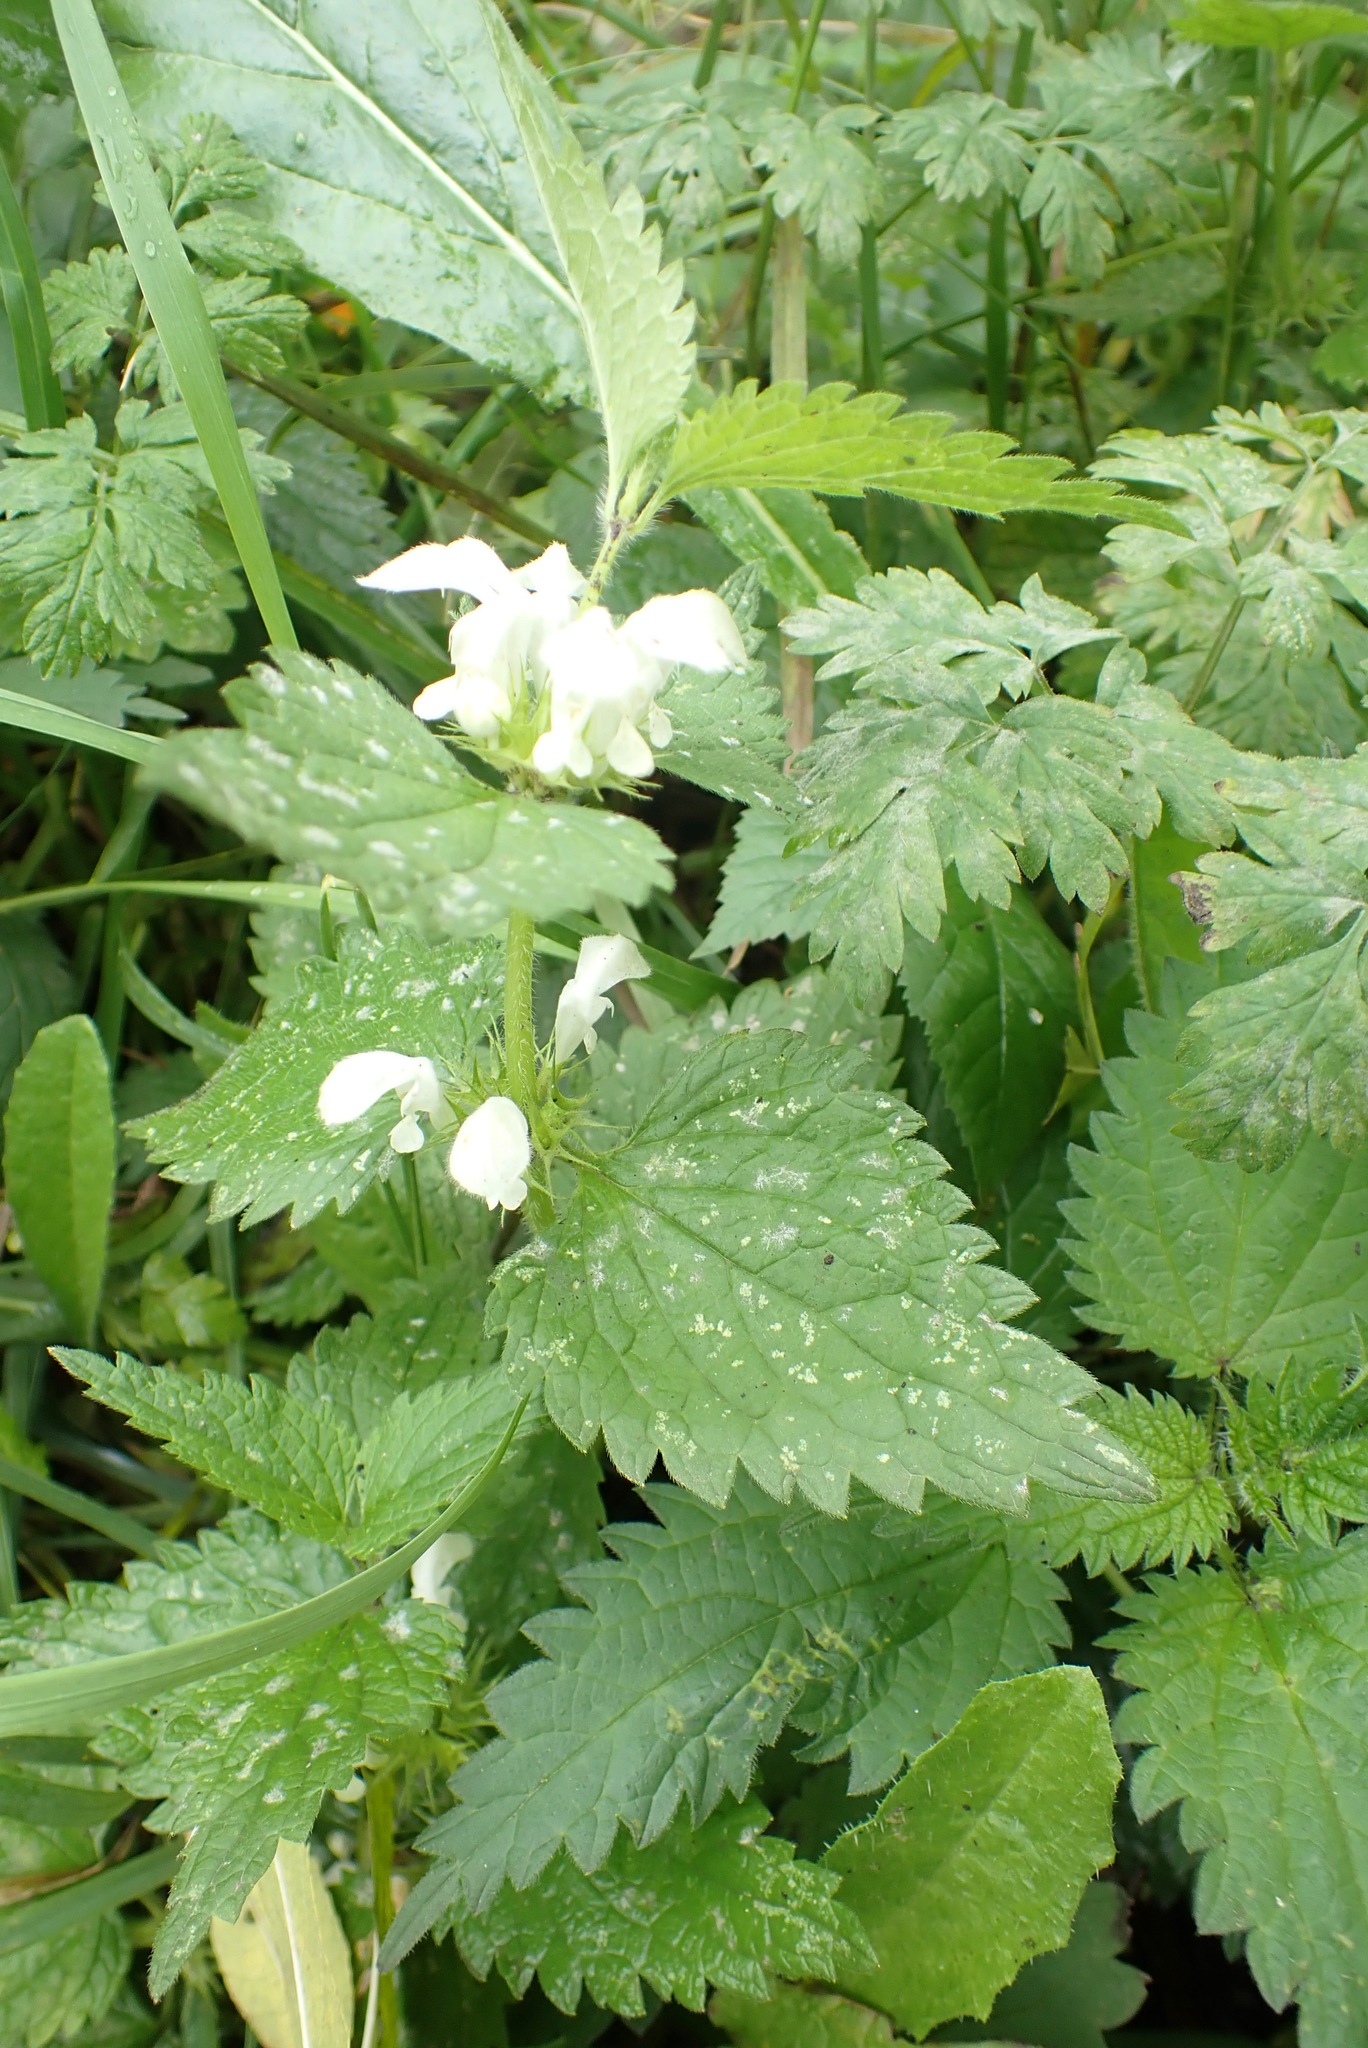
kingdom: Plantae
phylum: Tracheophyta
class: Magnoliopsida
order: Lamiales
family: Lamiaceae
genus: Lamium
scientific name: Lamium album
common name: White dead-nettle
